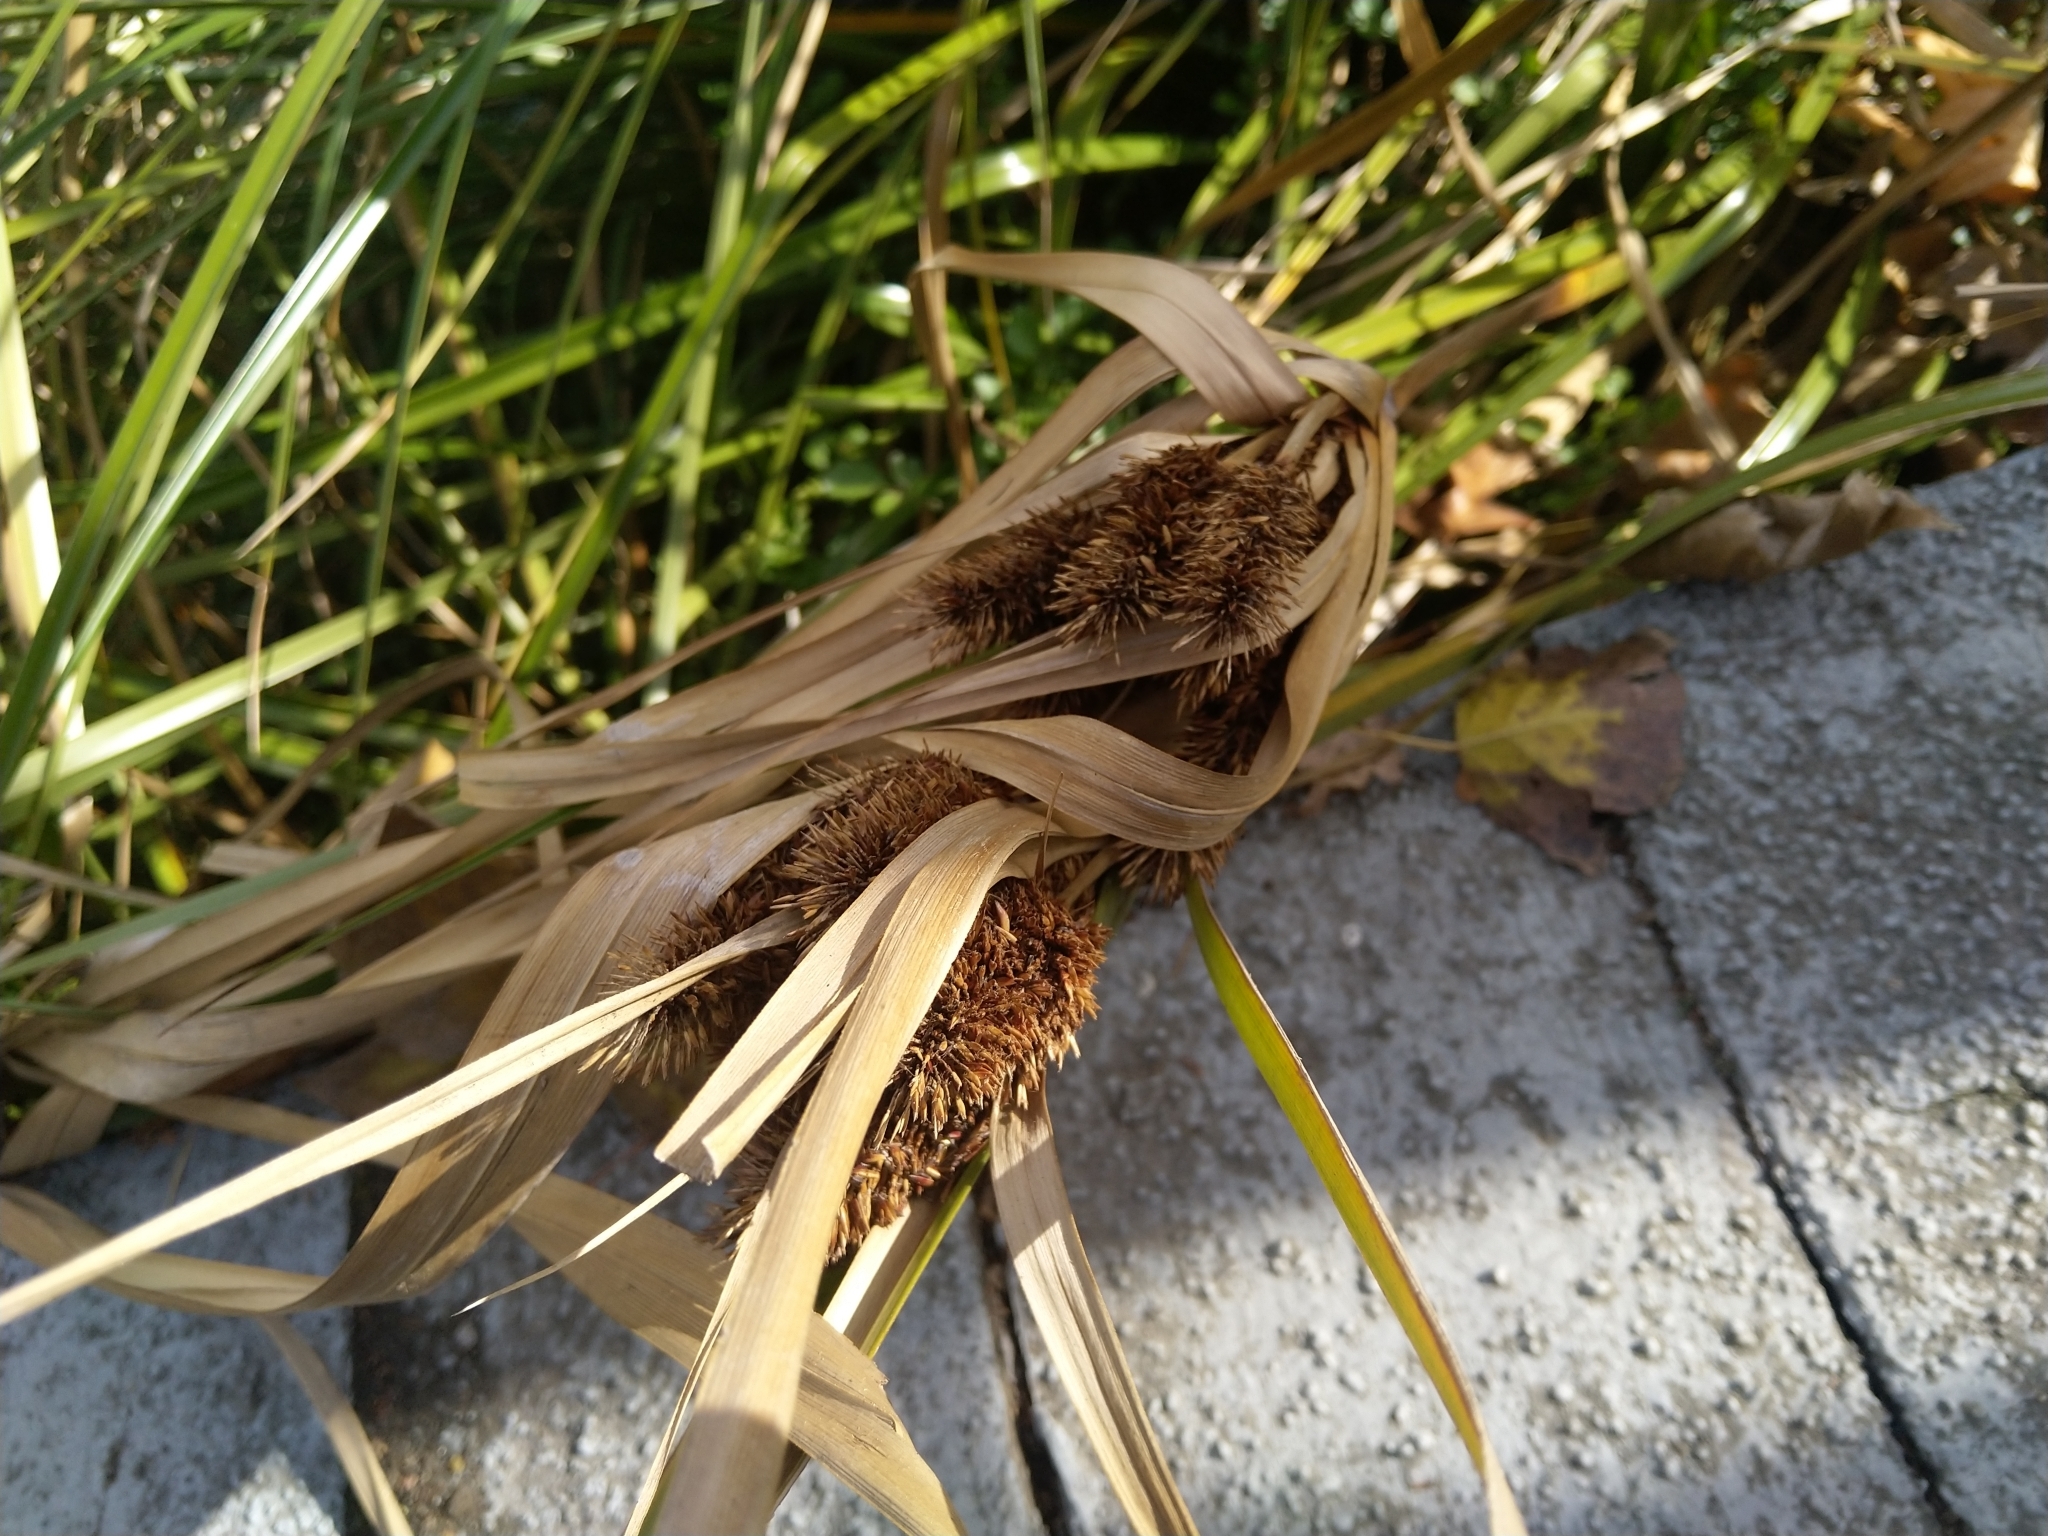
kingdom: Plantae
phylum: Tracheophyta
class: Liliopsida
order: Poales
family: Cyperaceae
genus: Cyperus
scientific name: Cyperus ustulatus
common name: Giant umbrella-sedge
